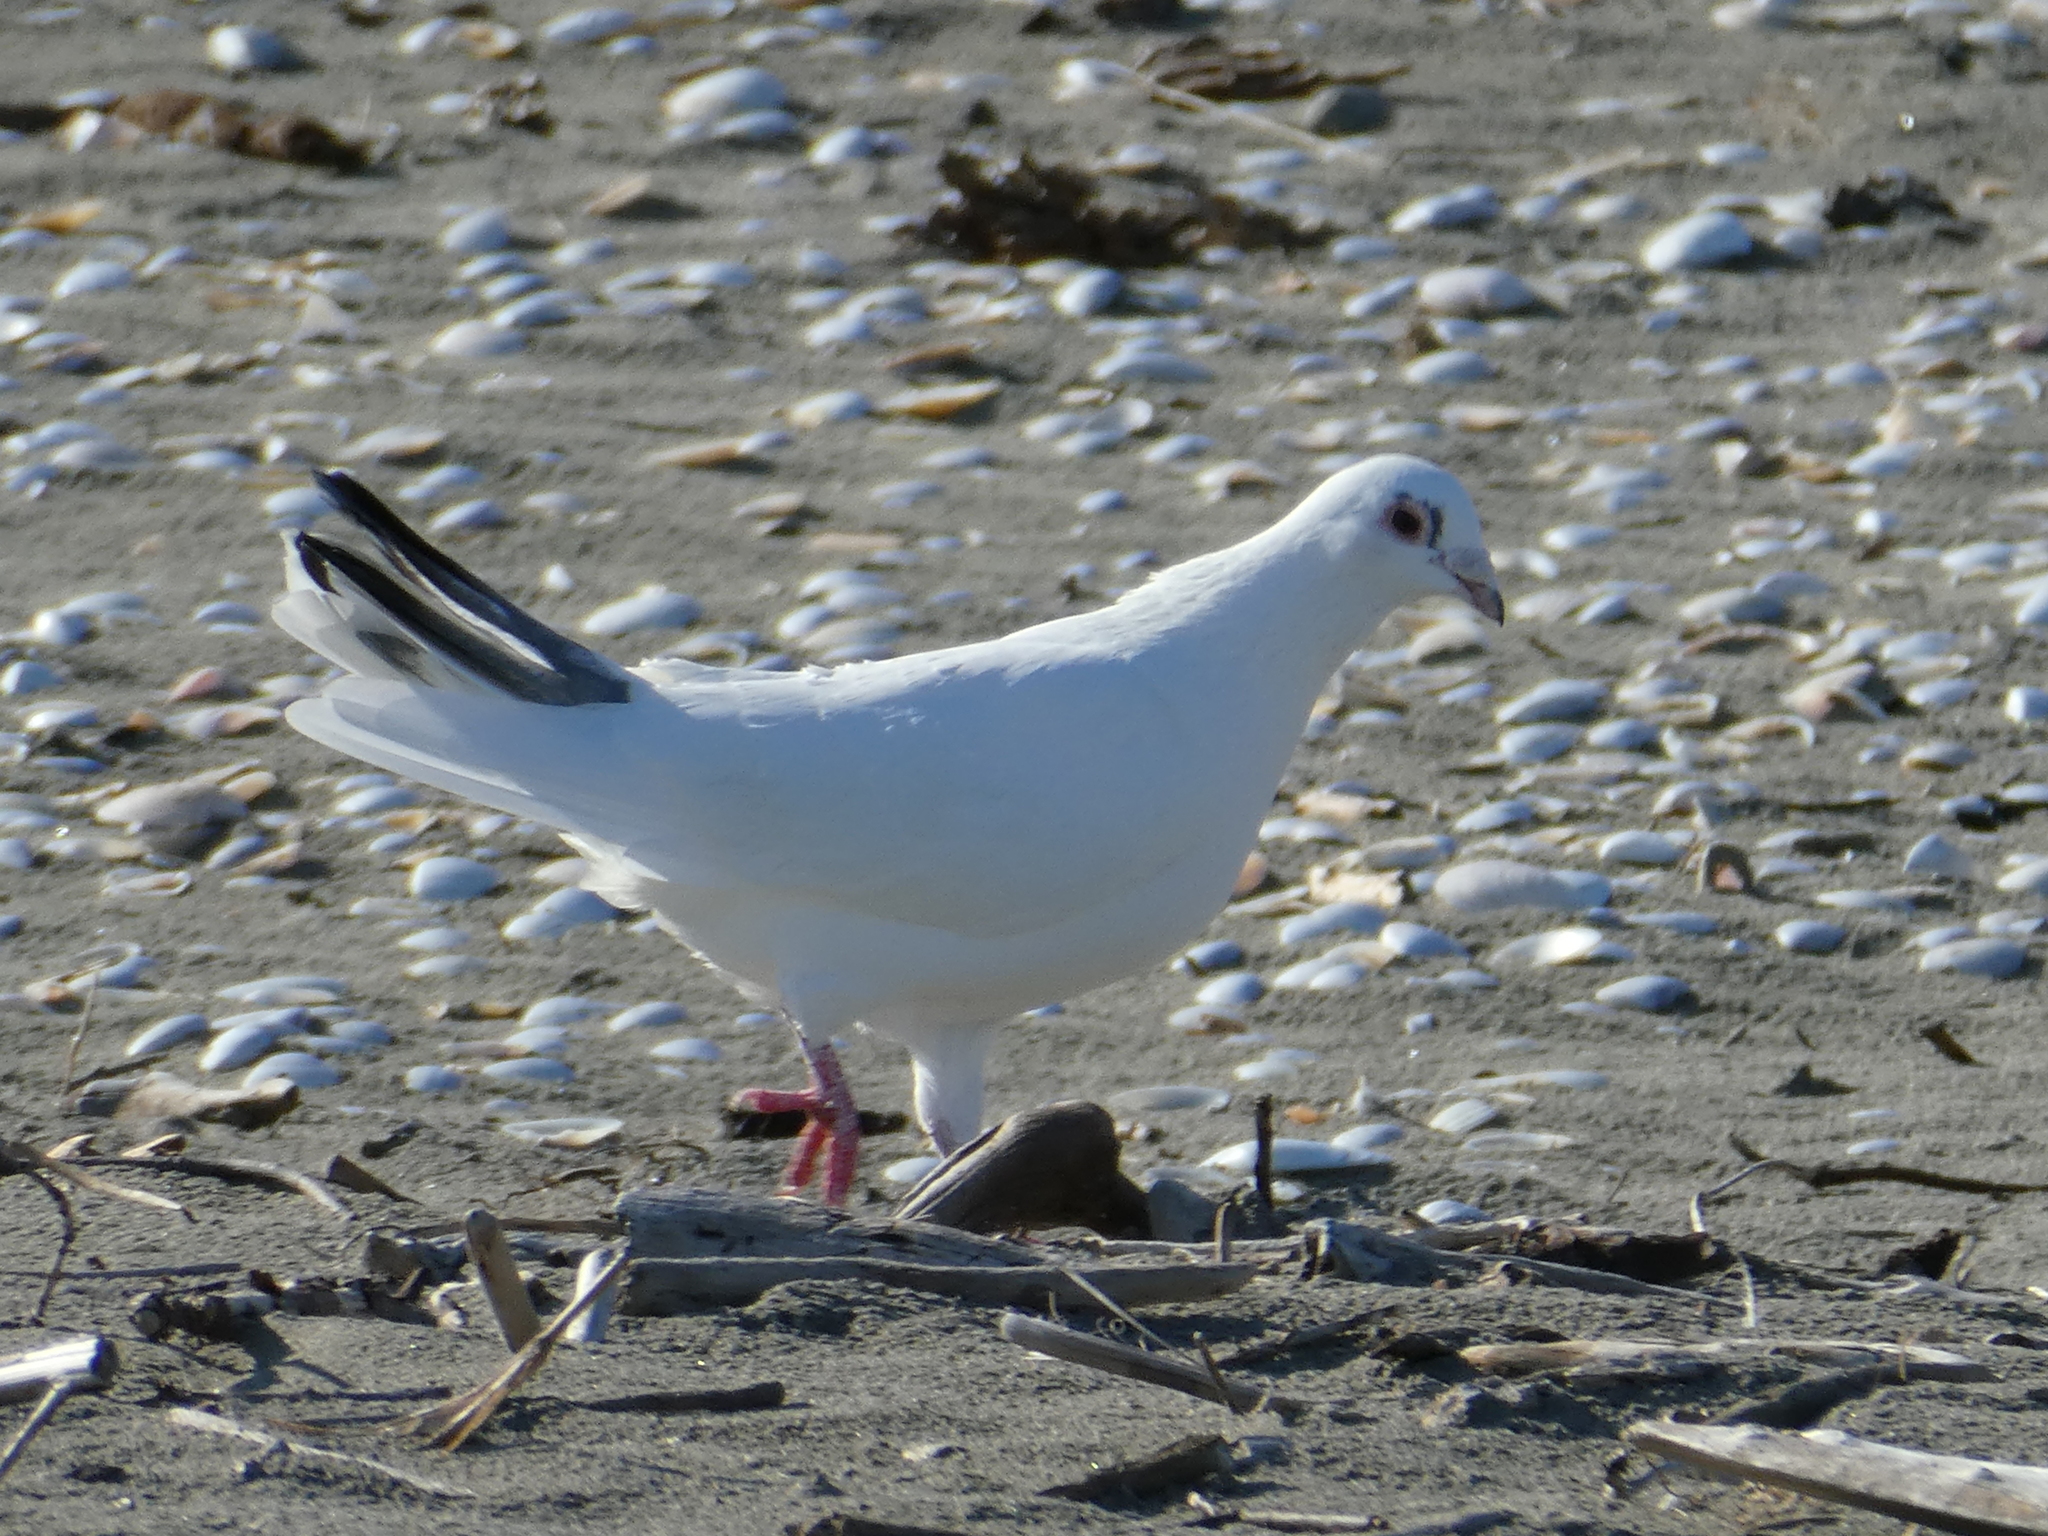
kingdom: Animalia
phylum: Chordata
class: Aves
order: Columbiformes
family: Columbidae
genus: Columba
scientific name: Columba livia
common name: Rock pigeon
